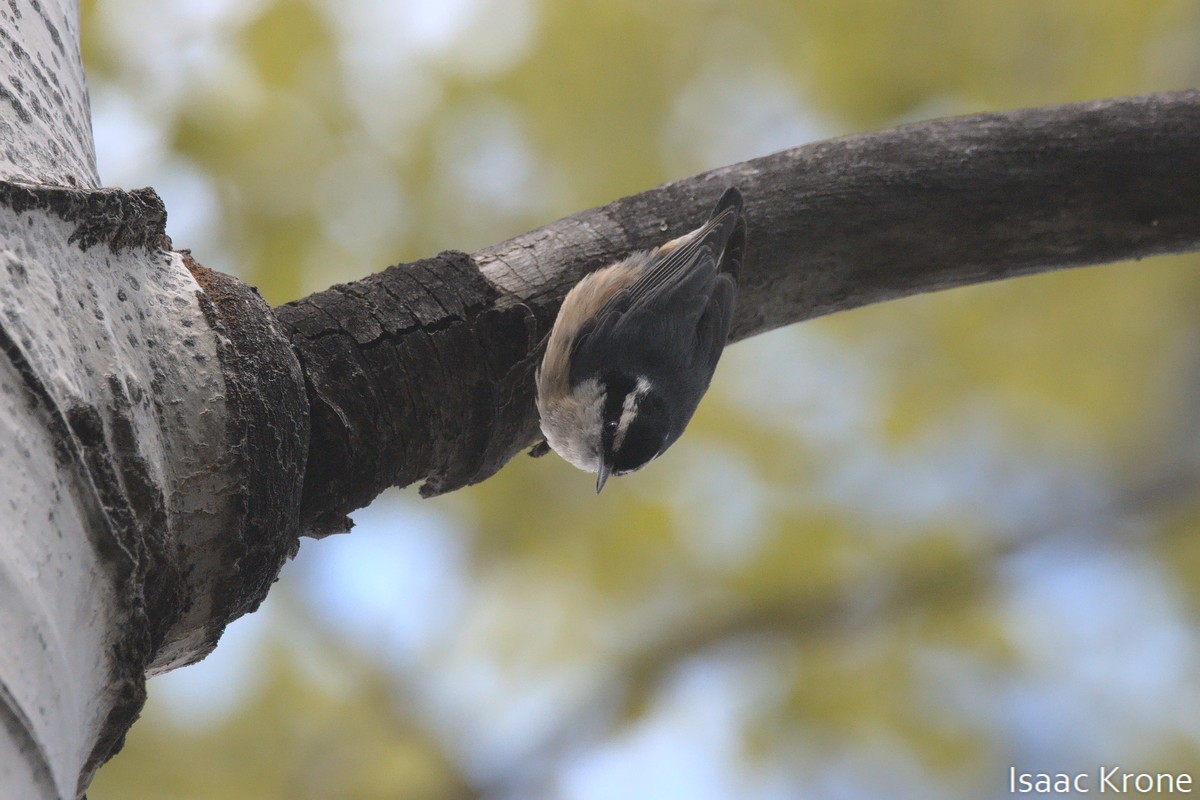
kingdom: Animalia
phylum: Chordata
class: Aves
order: Passeriformes
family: Sittidae
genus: Sitta
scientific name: Sitta canadensis
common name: Red-breasted nuthatch
